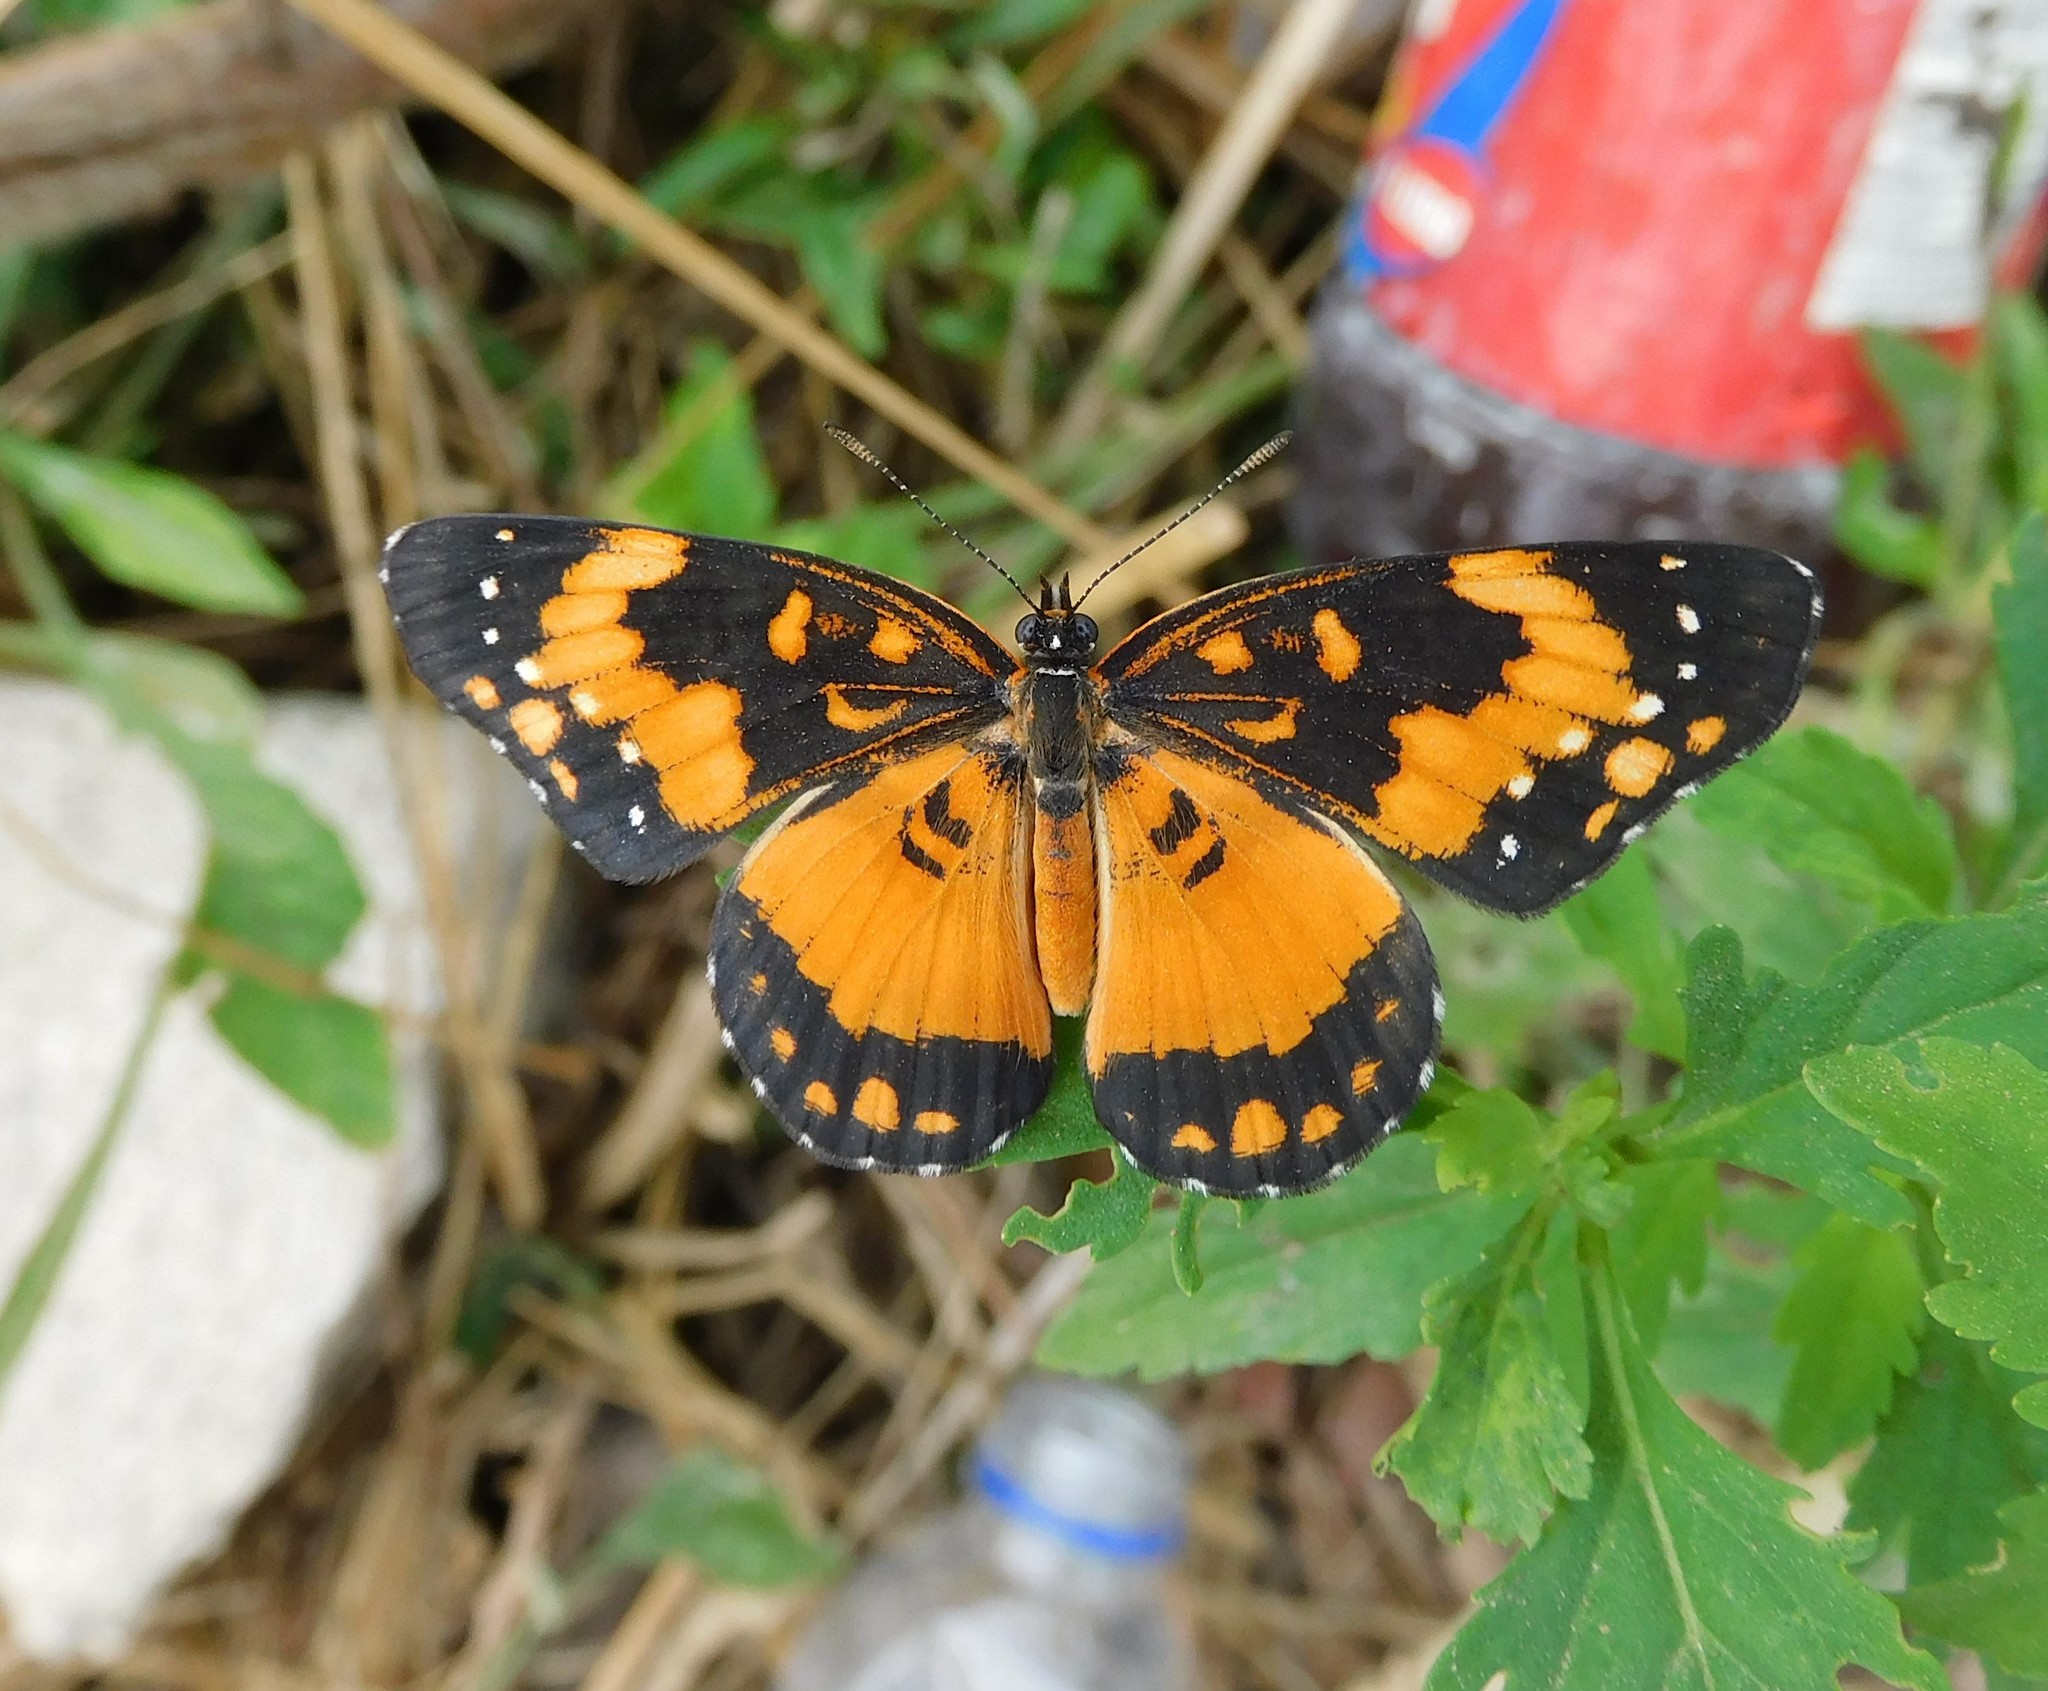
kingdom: Animalia
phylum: Arthropoda
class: Insecta
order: Lepidoptera
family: Nymphalidae
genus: Chlosyne
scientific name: Chlosyne lacinia
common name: Bordered patch
